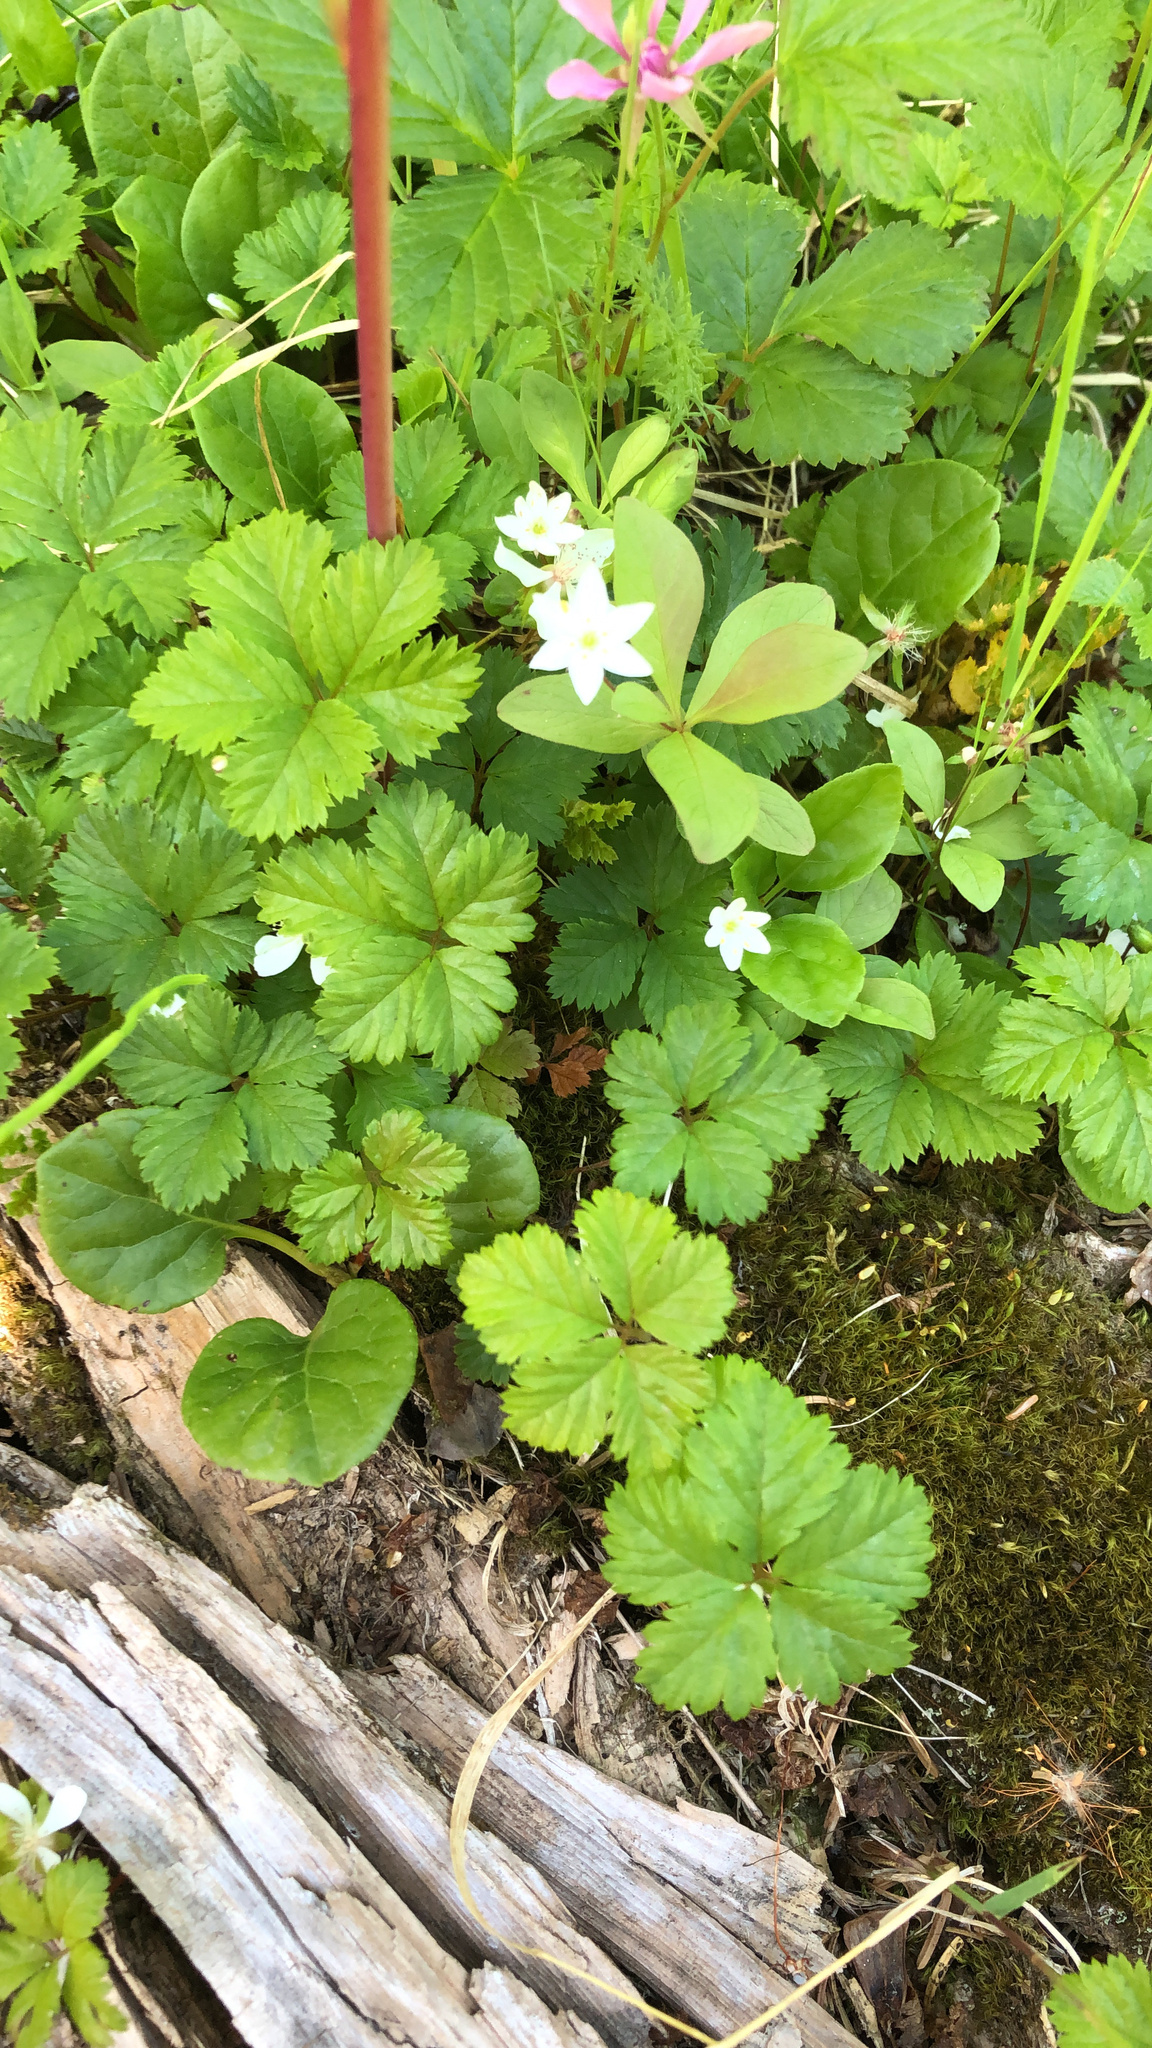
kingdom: Plantae
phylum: Tracheophyta
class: Magnoliopsida
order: Rosales
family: Rosaceae
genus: Rubus
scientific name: Rubus pedatus
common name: Creeping raspberry
